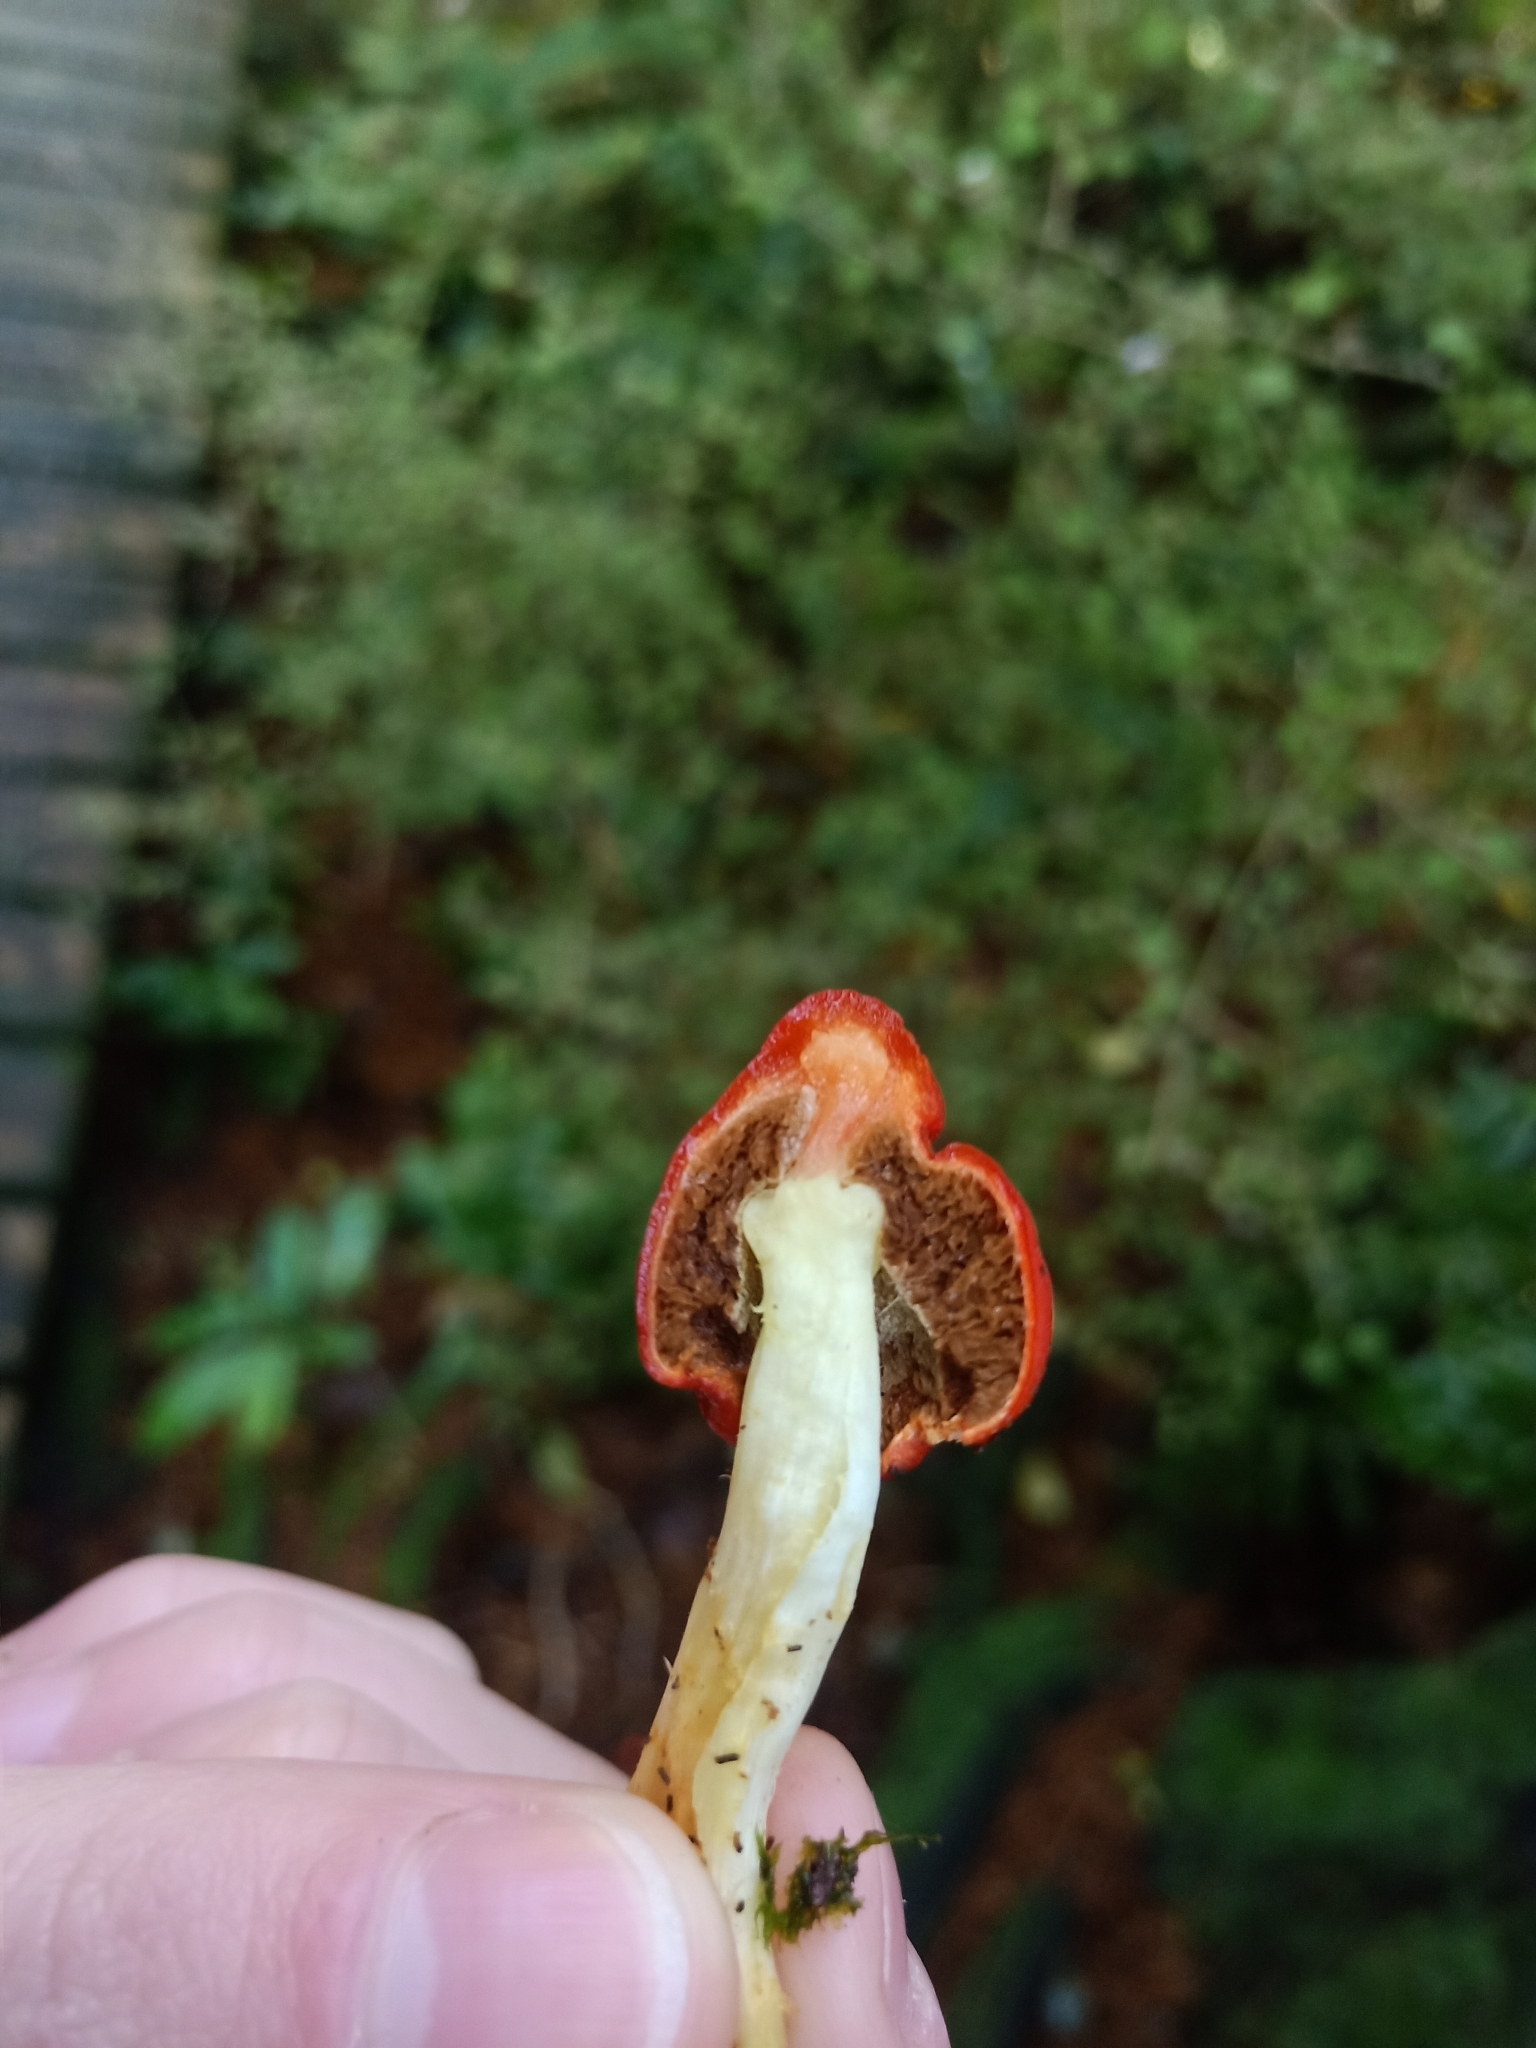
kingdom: Fungi
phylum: Basidiomycota
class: Agaricomycetes
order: Agaricales
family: Strophariaceae
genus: Leratiomyces
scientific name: Leratiomyces erythrocephalus
